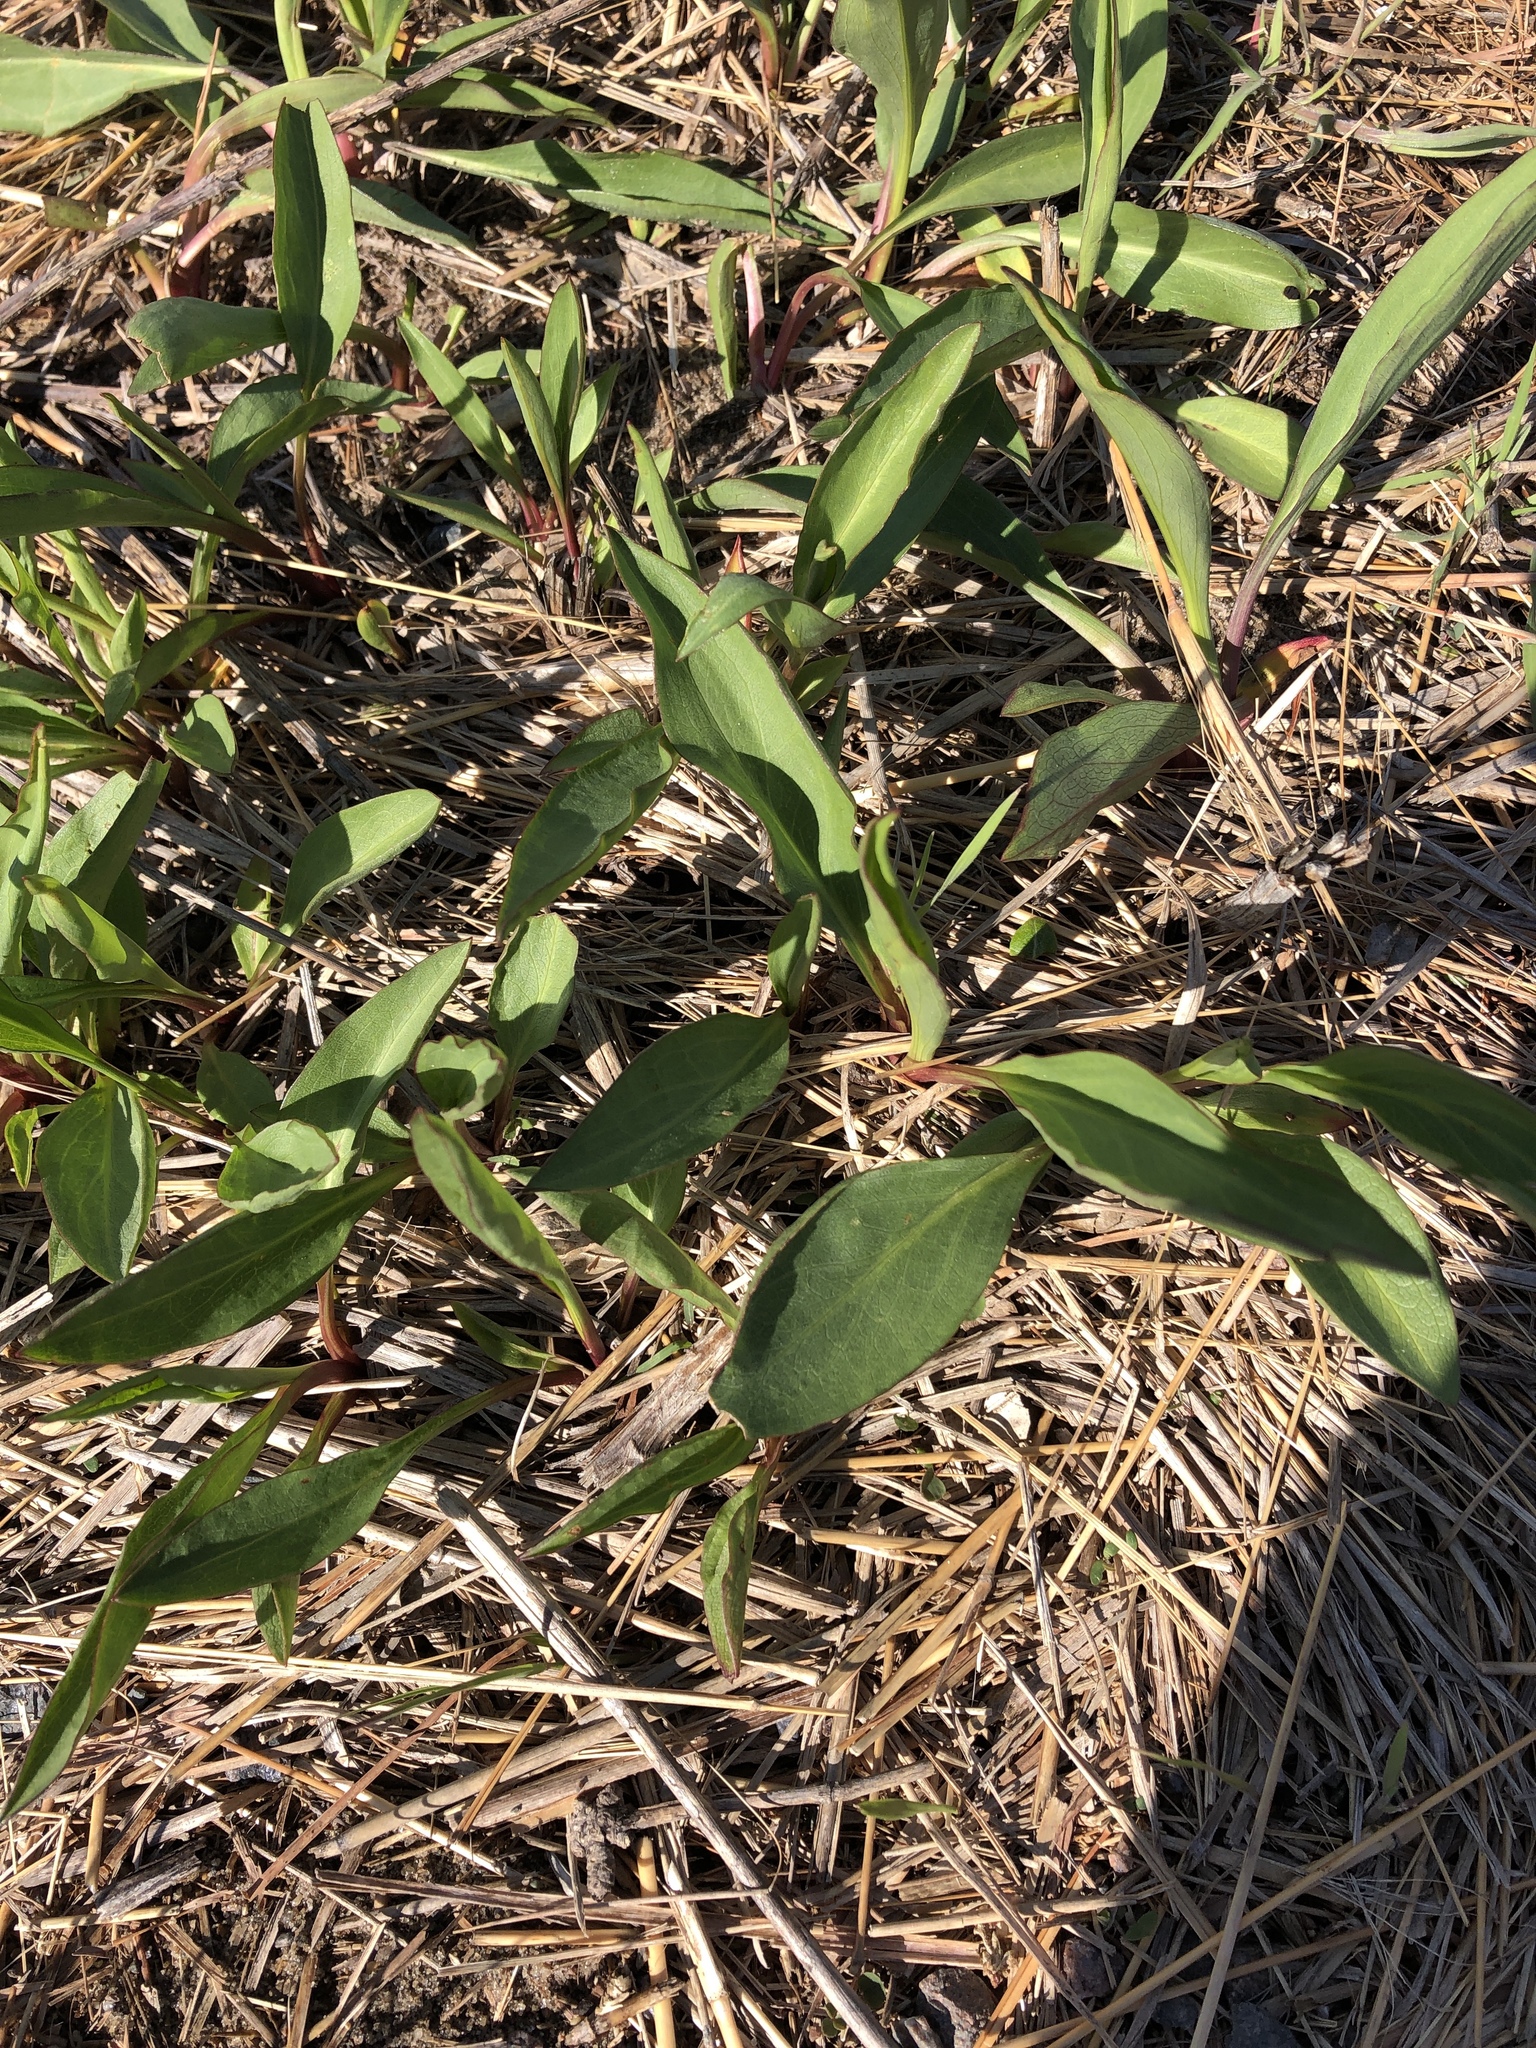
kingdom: Plantae
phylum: Tracheophyta
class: Magnoliopsida
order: Asterales
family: Asteraceae
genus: Solidago
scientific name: Solidago sempervirens
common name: Salt-marsh goldenrod
